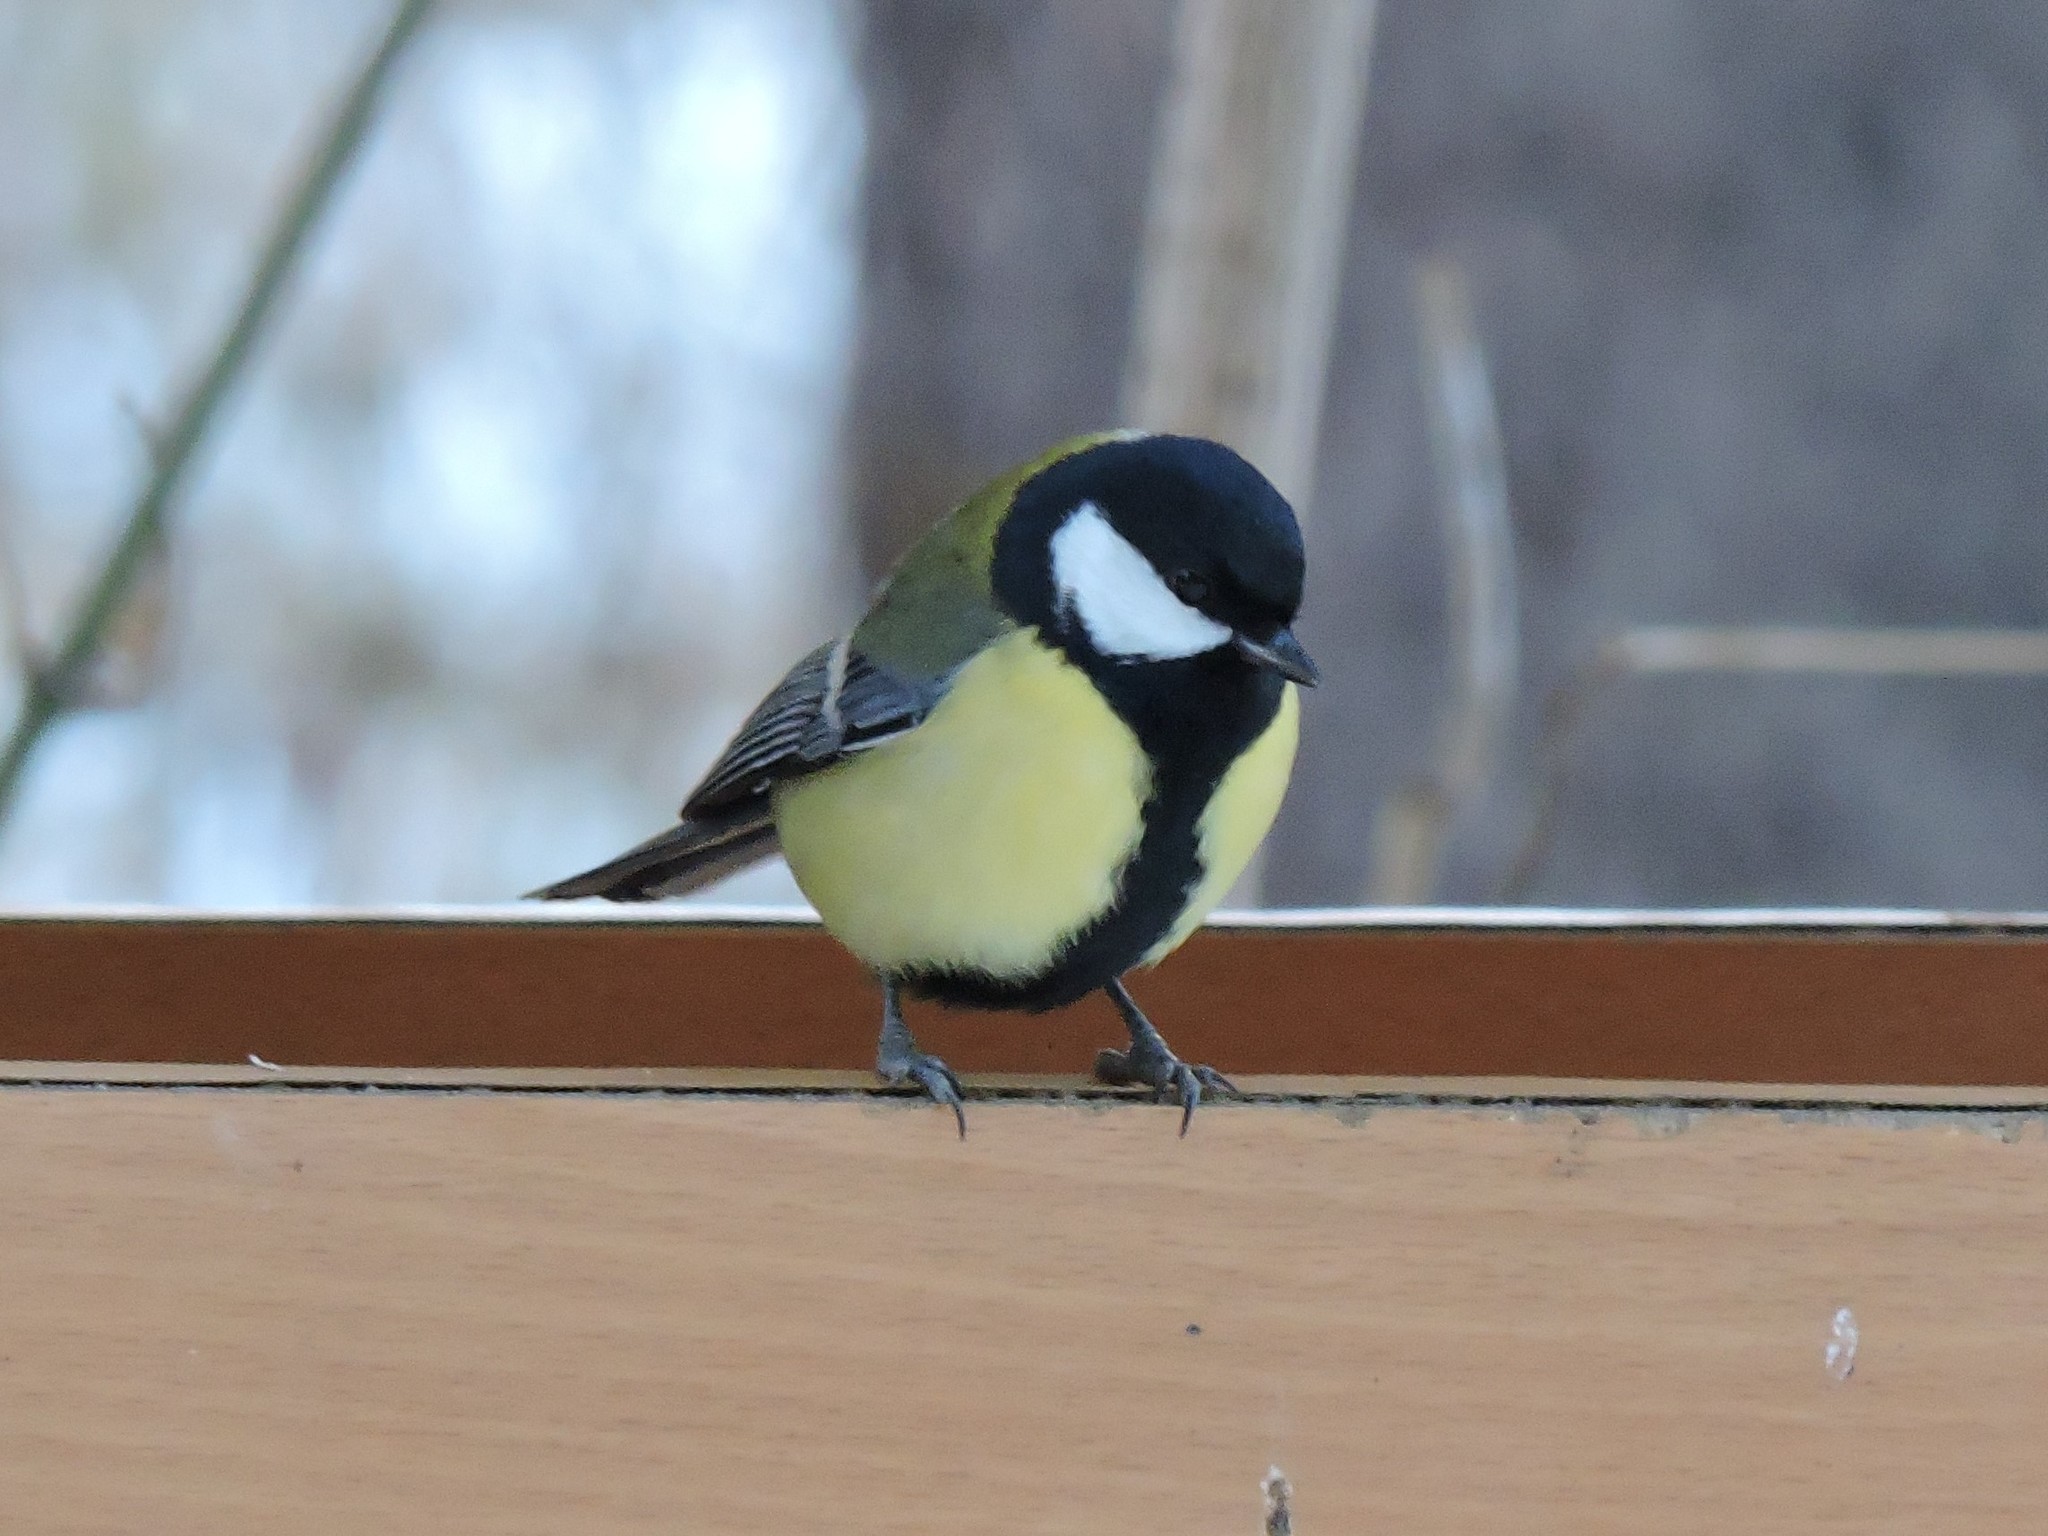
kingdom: Animalia
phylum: Chordata
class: Aves
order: Passeriformes
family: Paridae
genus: Parus
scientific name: Parus major
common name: Great tit
